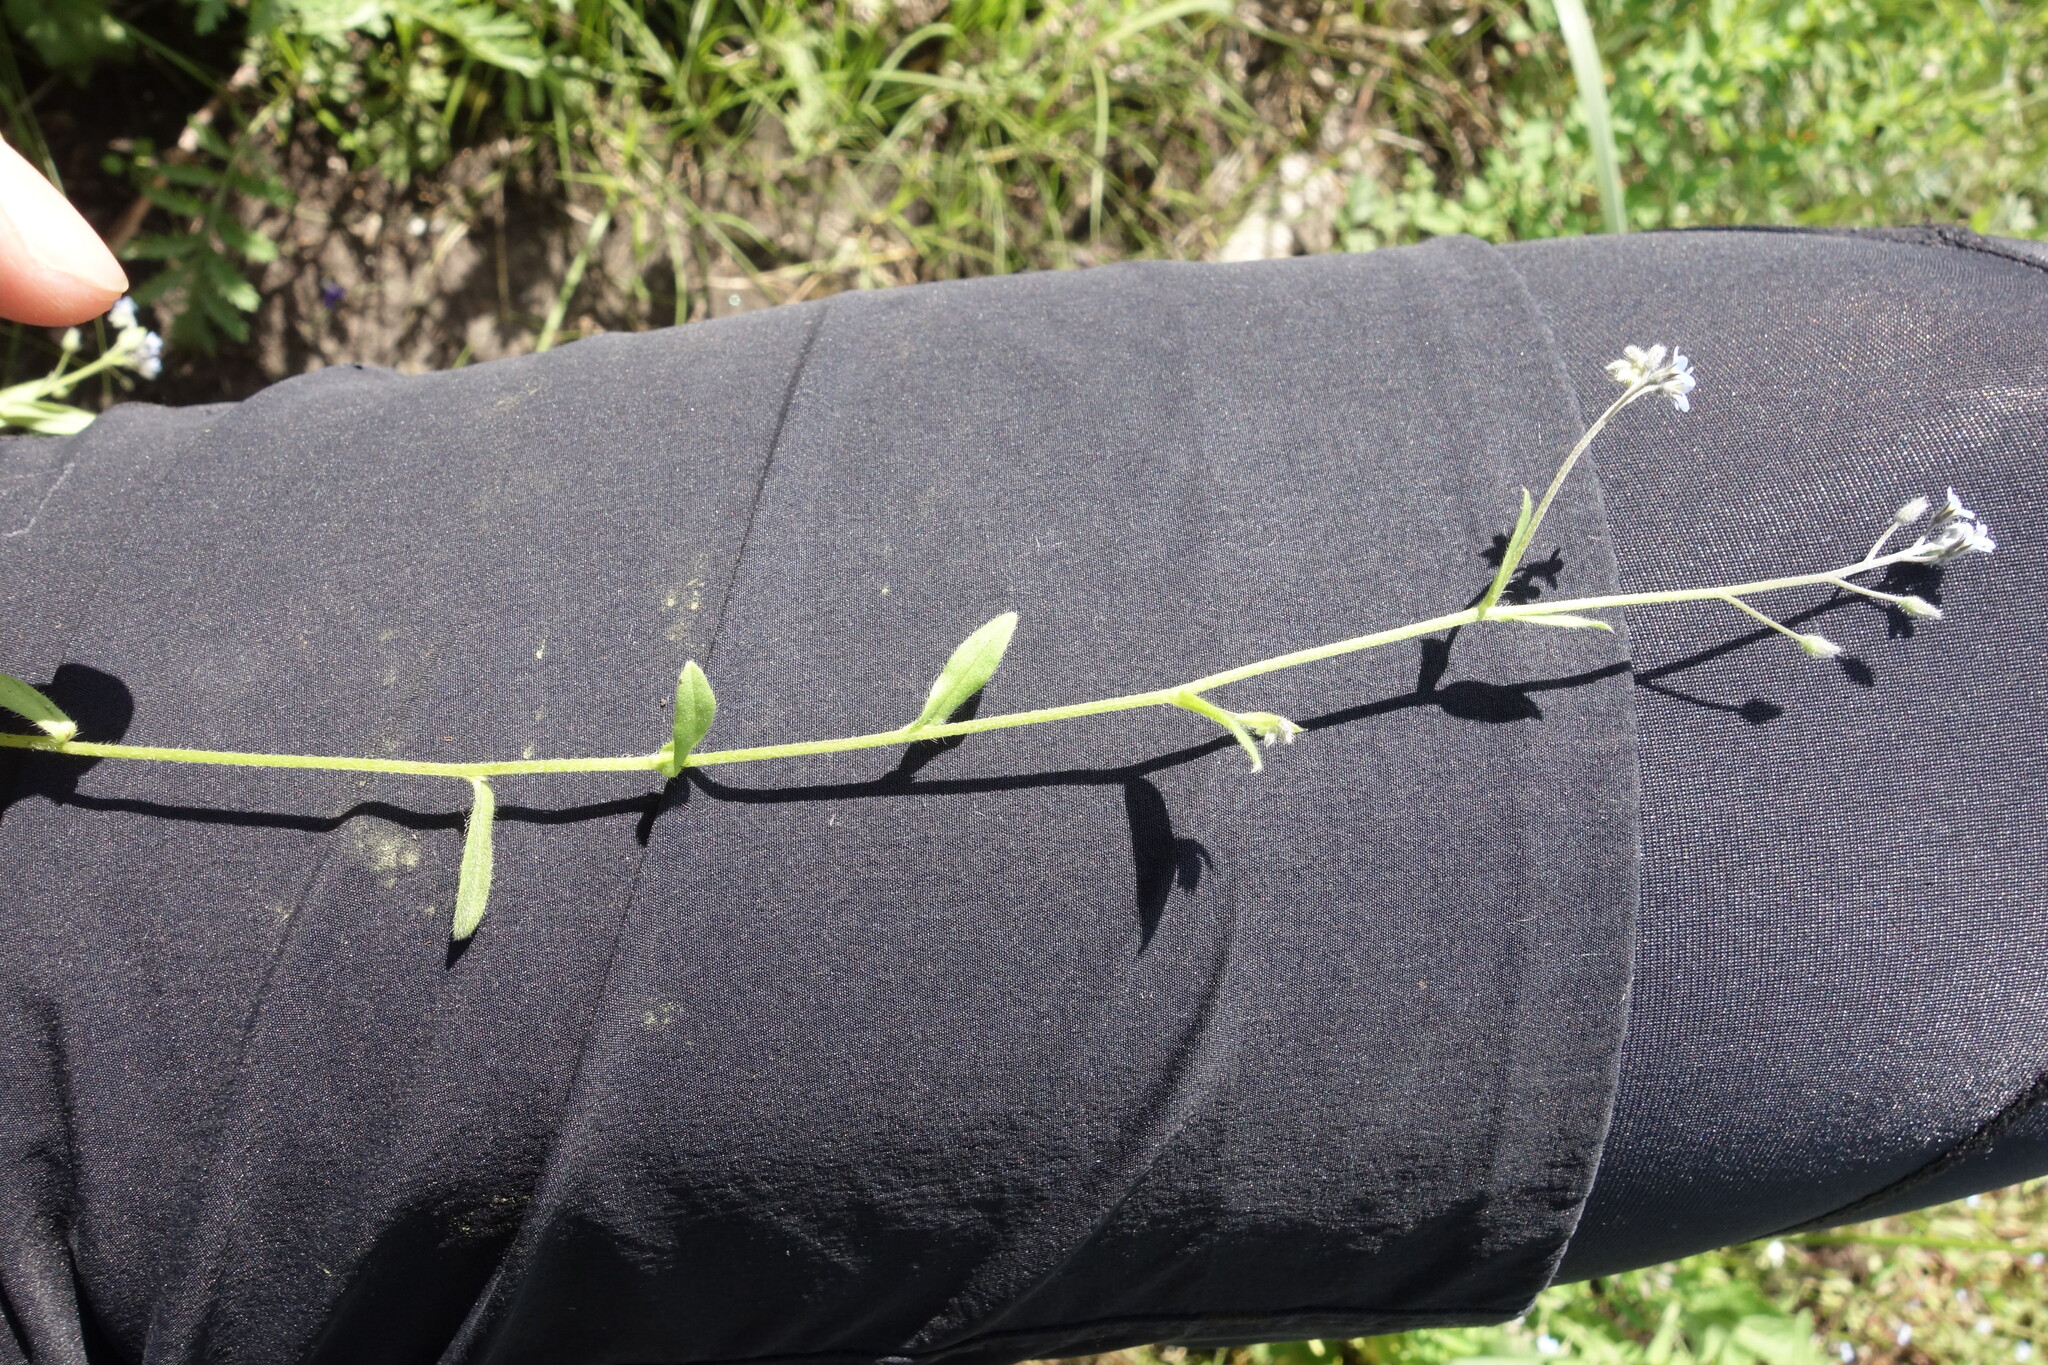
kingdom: Plantae
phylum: Tracheophyta
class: Magnoliopsida
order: Boraginales
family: Boraginaceae
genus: Myosotis
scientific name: Myosotis arvensis
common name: Field forget-me-not
